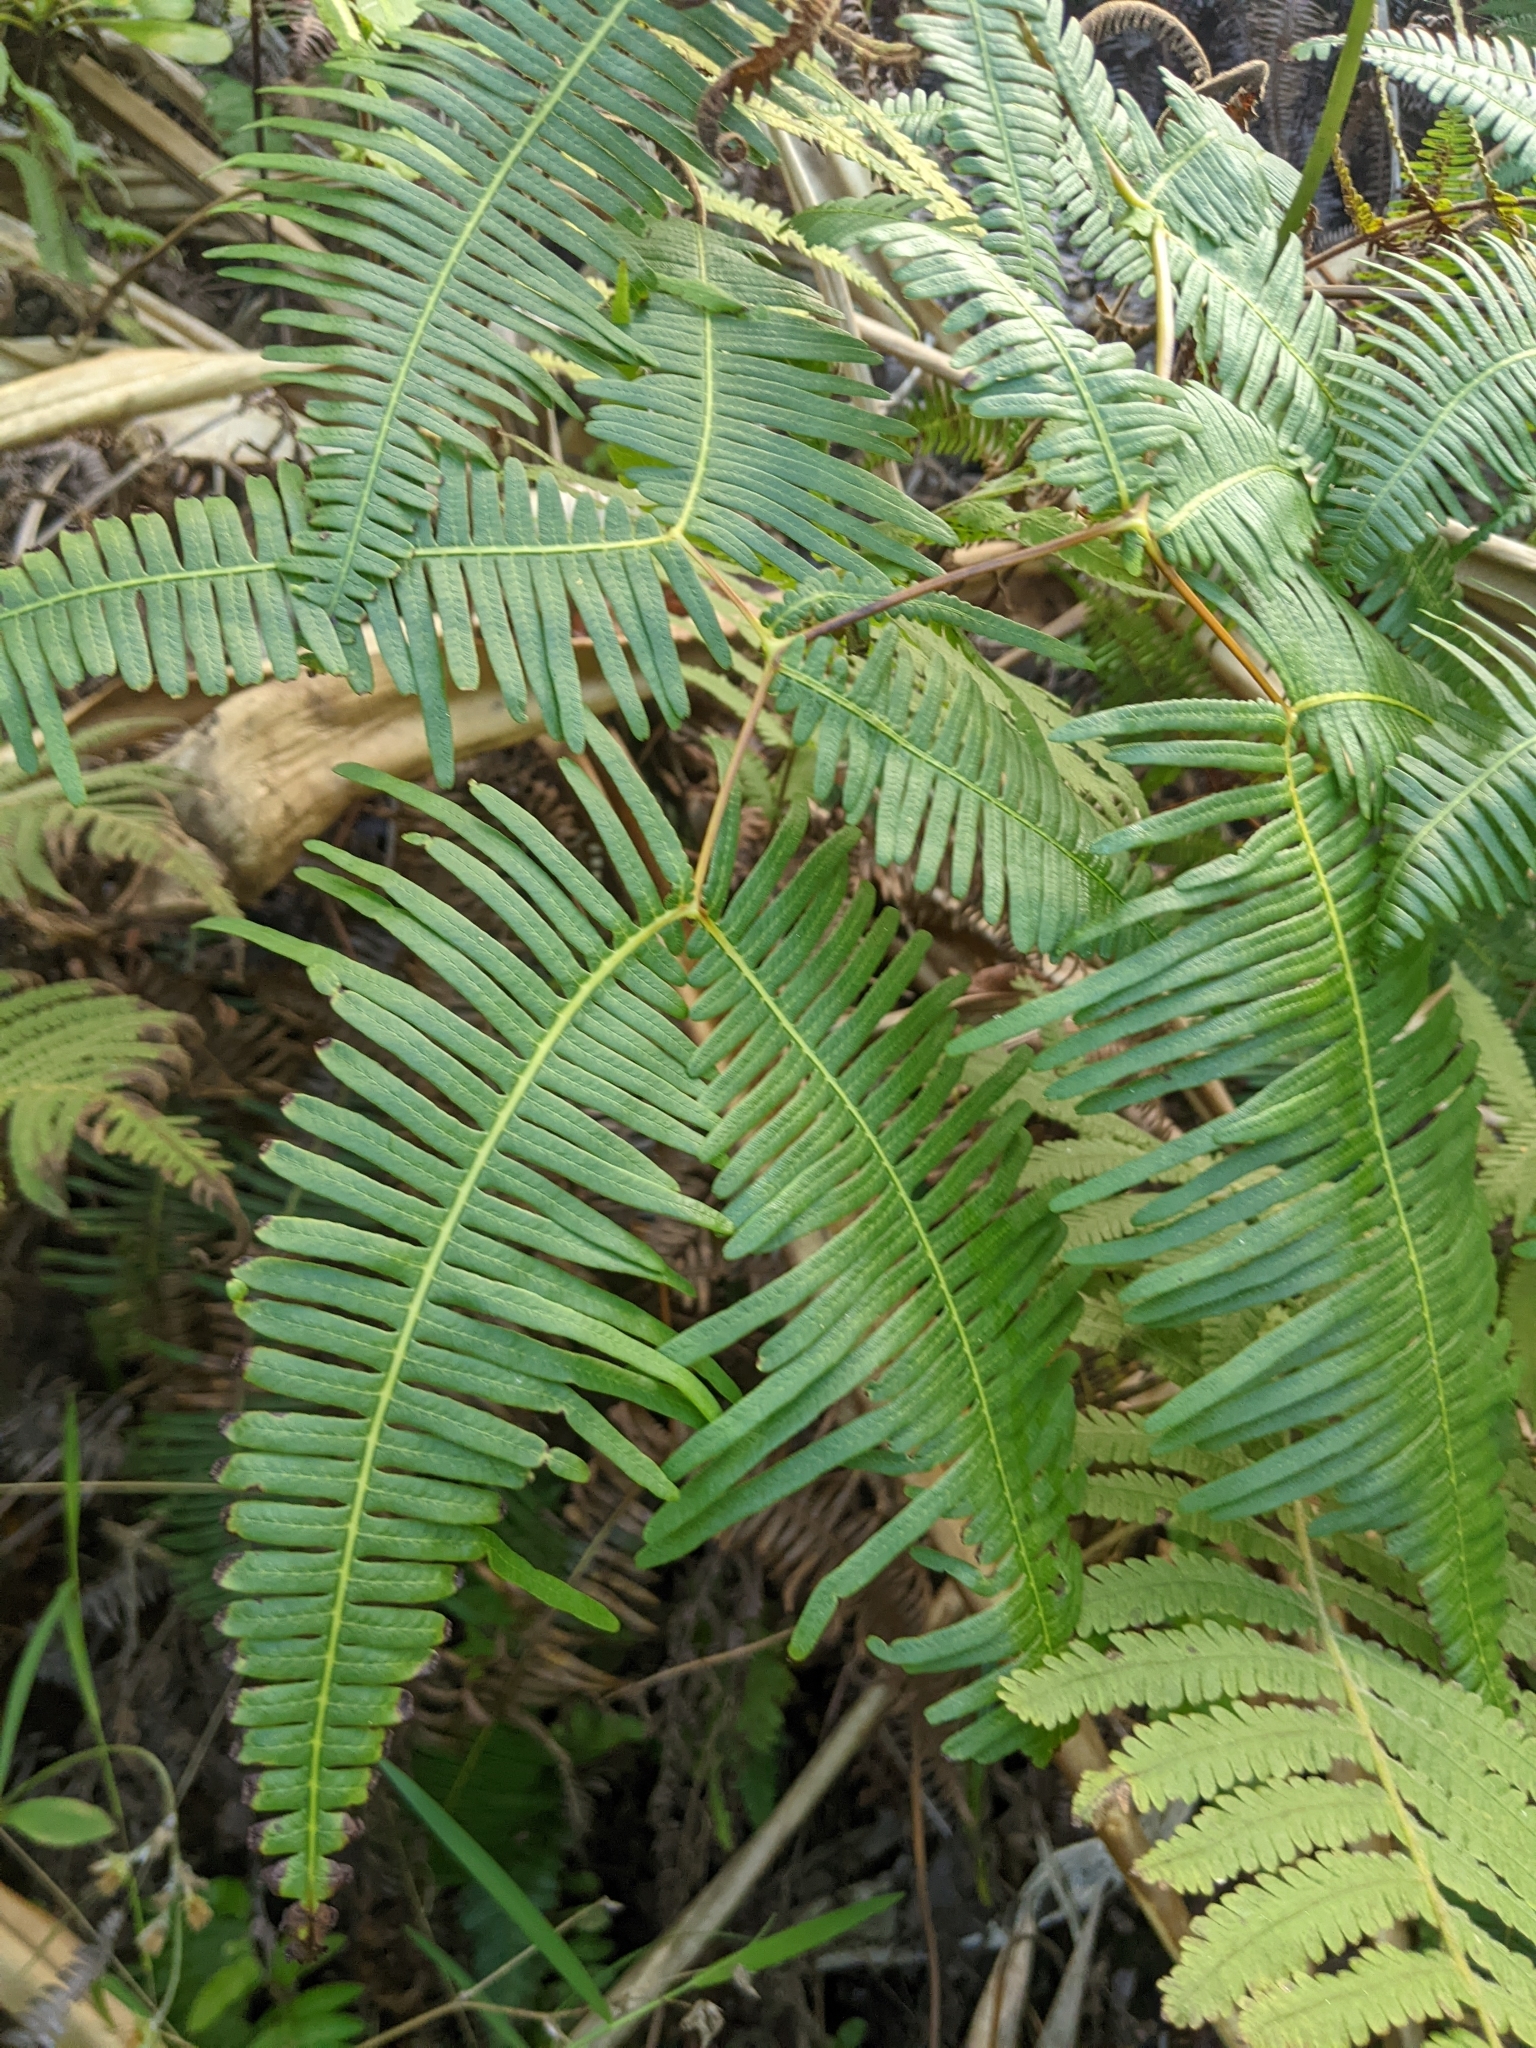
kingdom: Plantae
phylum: Tracheophyta
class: Polypodiopsida
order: Gleicheniales
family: Gleicheniaceae
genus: Dicranopteris
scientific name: Dicranopteris linearis
